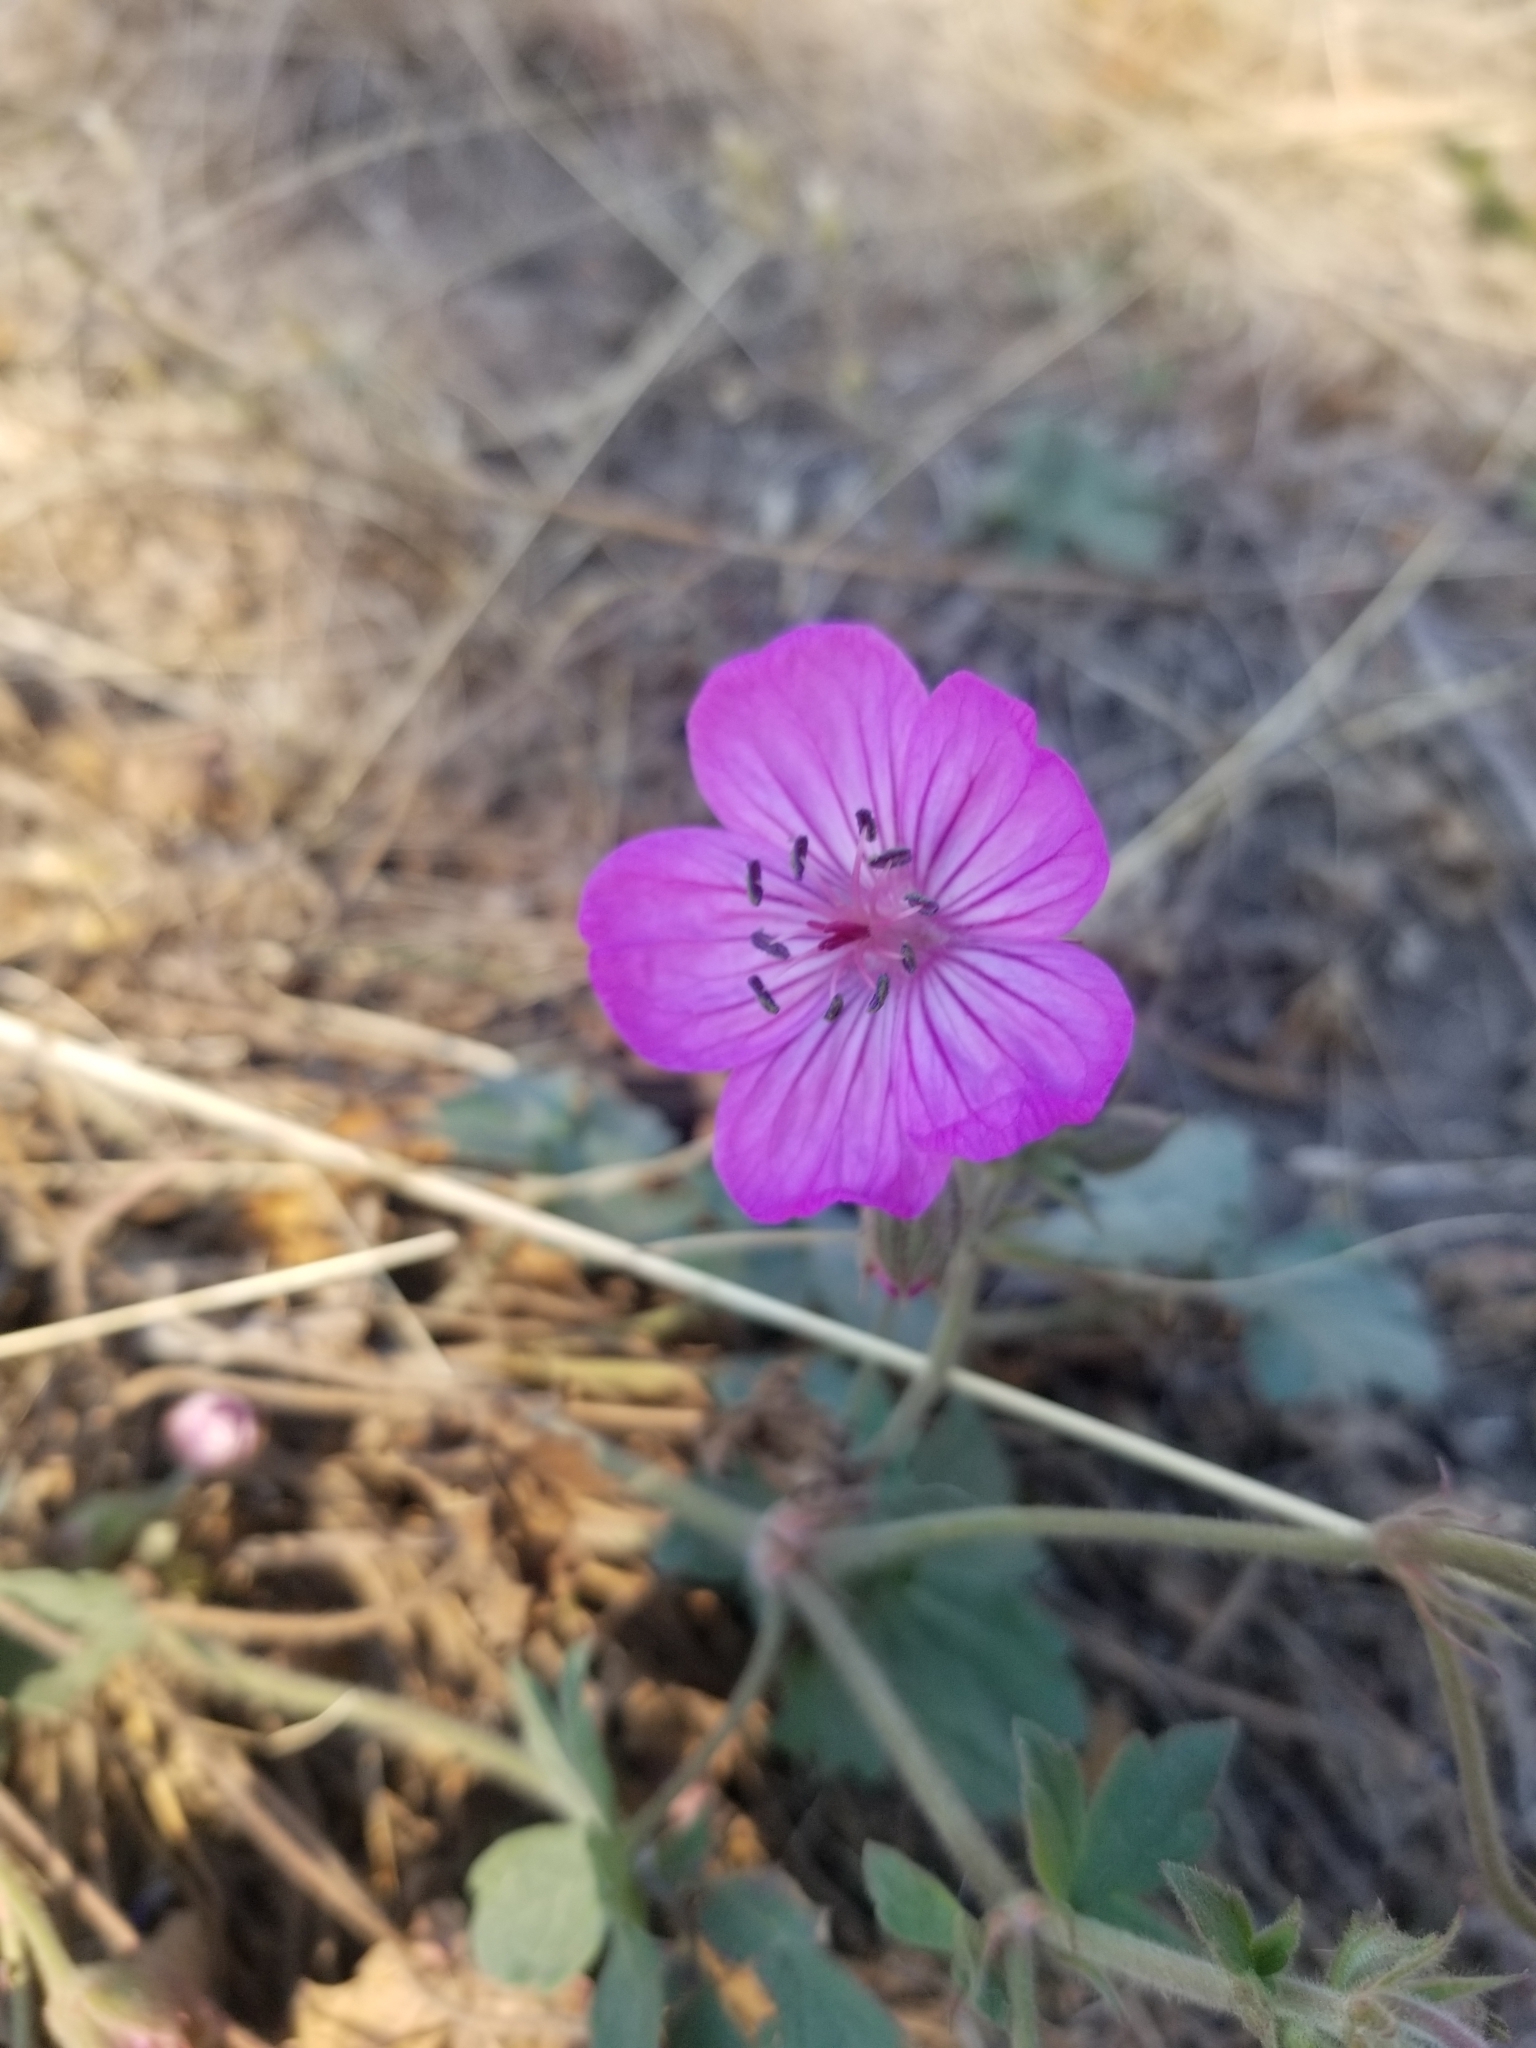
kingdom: Plantae
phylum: Tracheophyta
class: Magnoliopsida
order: Geraniales
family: Geraniaceae
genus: Geranium
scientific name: Geranium viscosissimum
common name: Purple geranium
